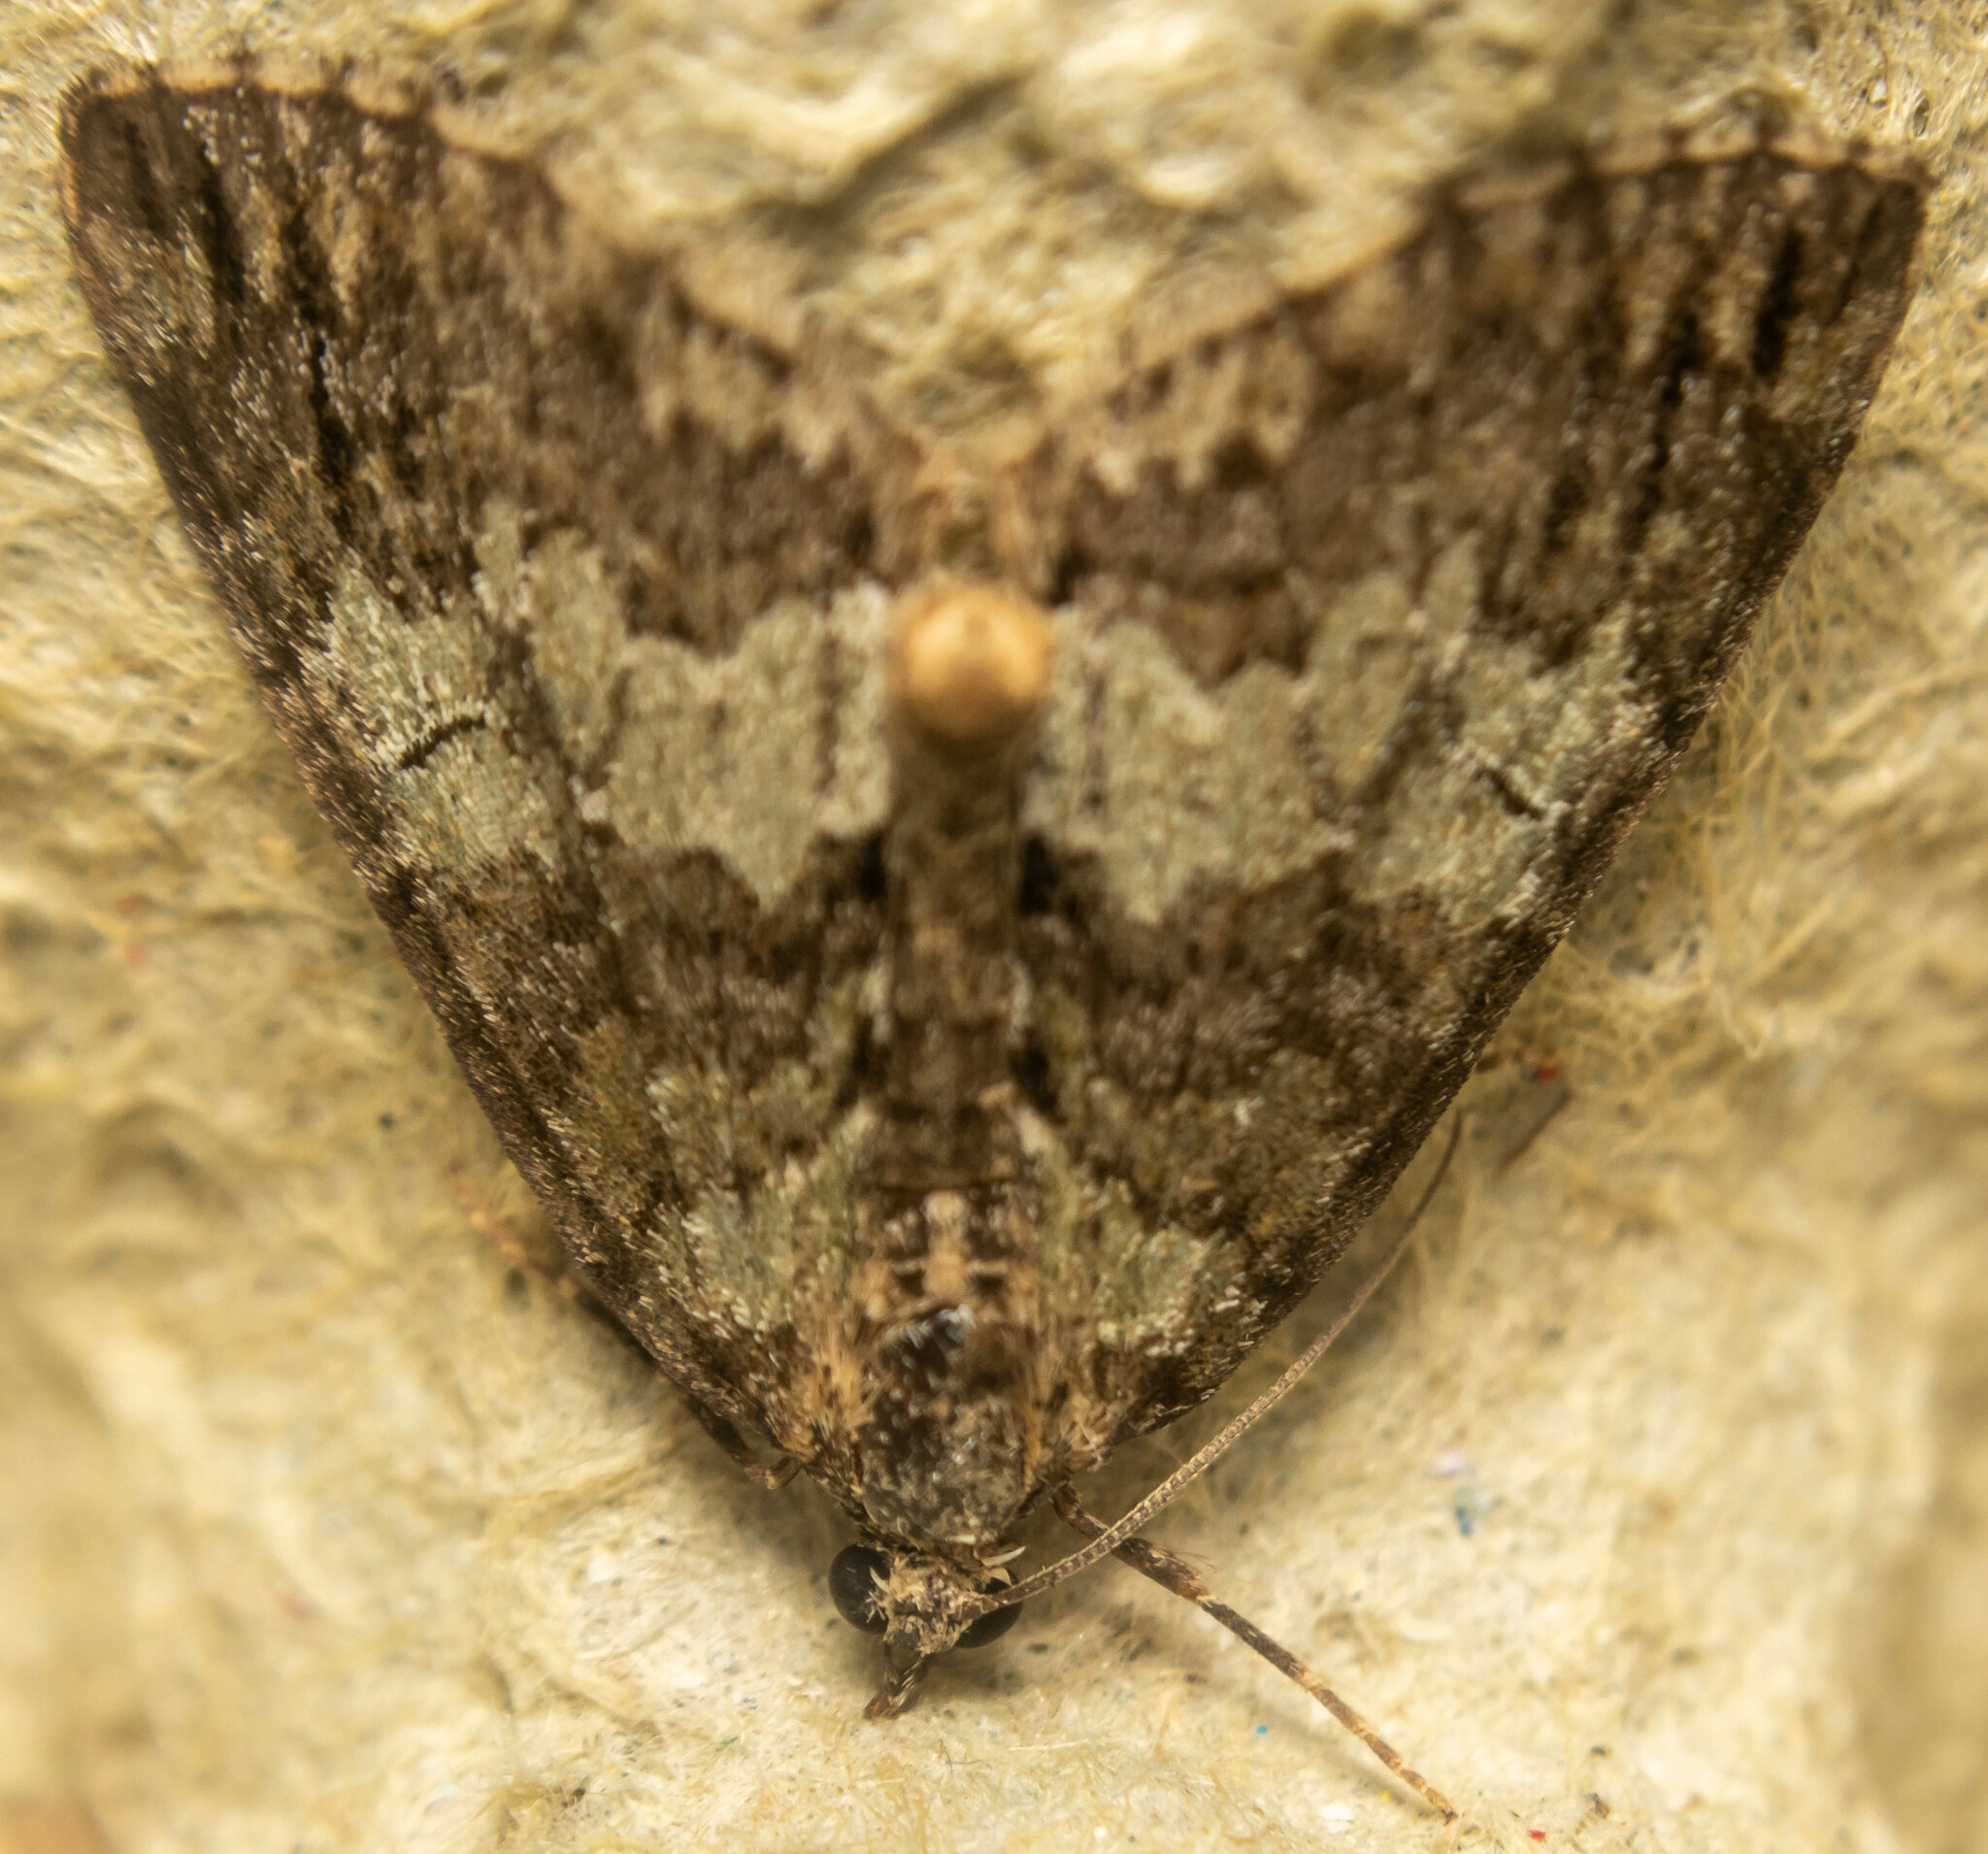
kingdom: Animalia
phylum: Arthropoda
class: Insecta
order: Lepidoptera
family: Geometridae
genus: Hydriomena
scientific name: Hydriomena impluviata
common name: May highflyer
